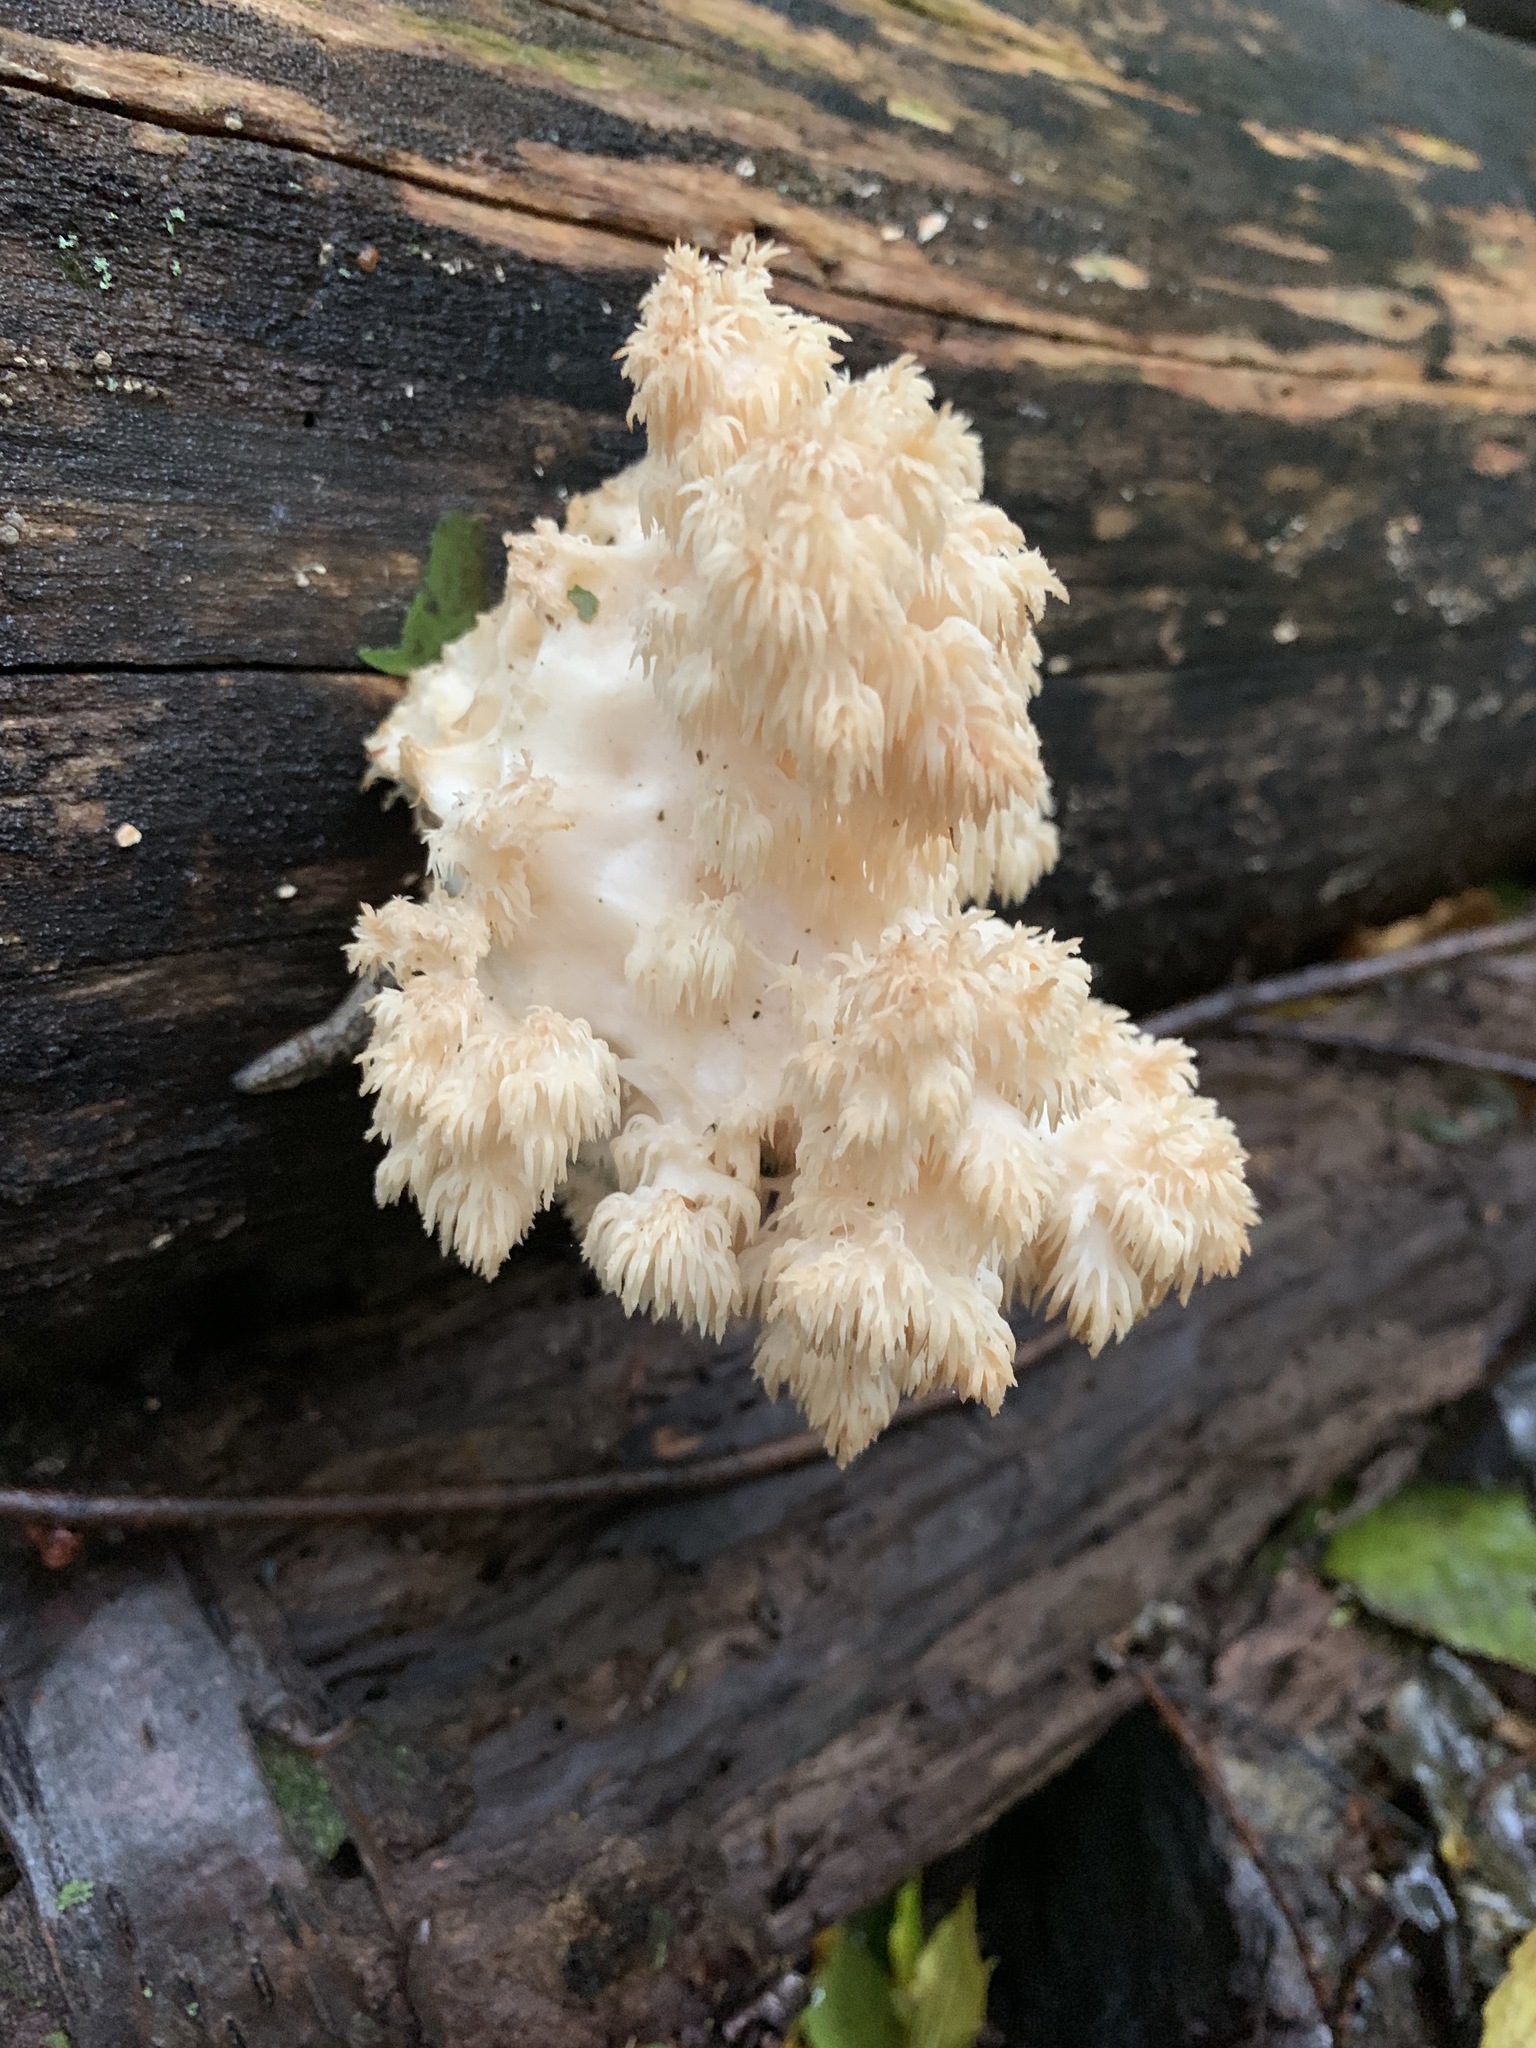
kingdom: Fungi
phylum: Basidiomycota
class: Agaricomycetes
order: Russulales
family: Hericiaceae
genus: Hericium
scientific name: Hericium americanum
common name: Bear's head tooth
